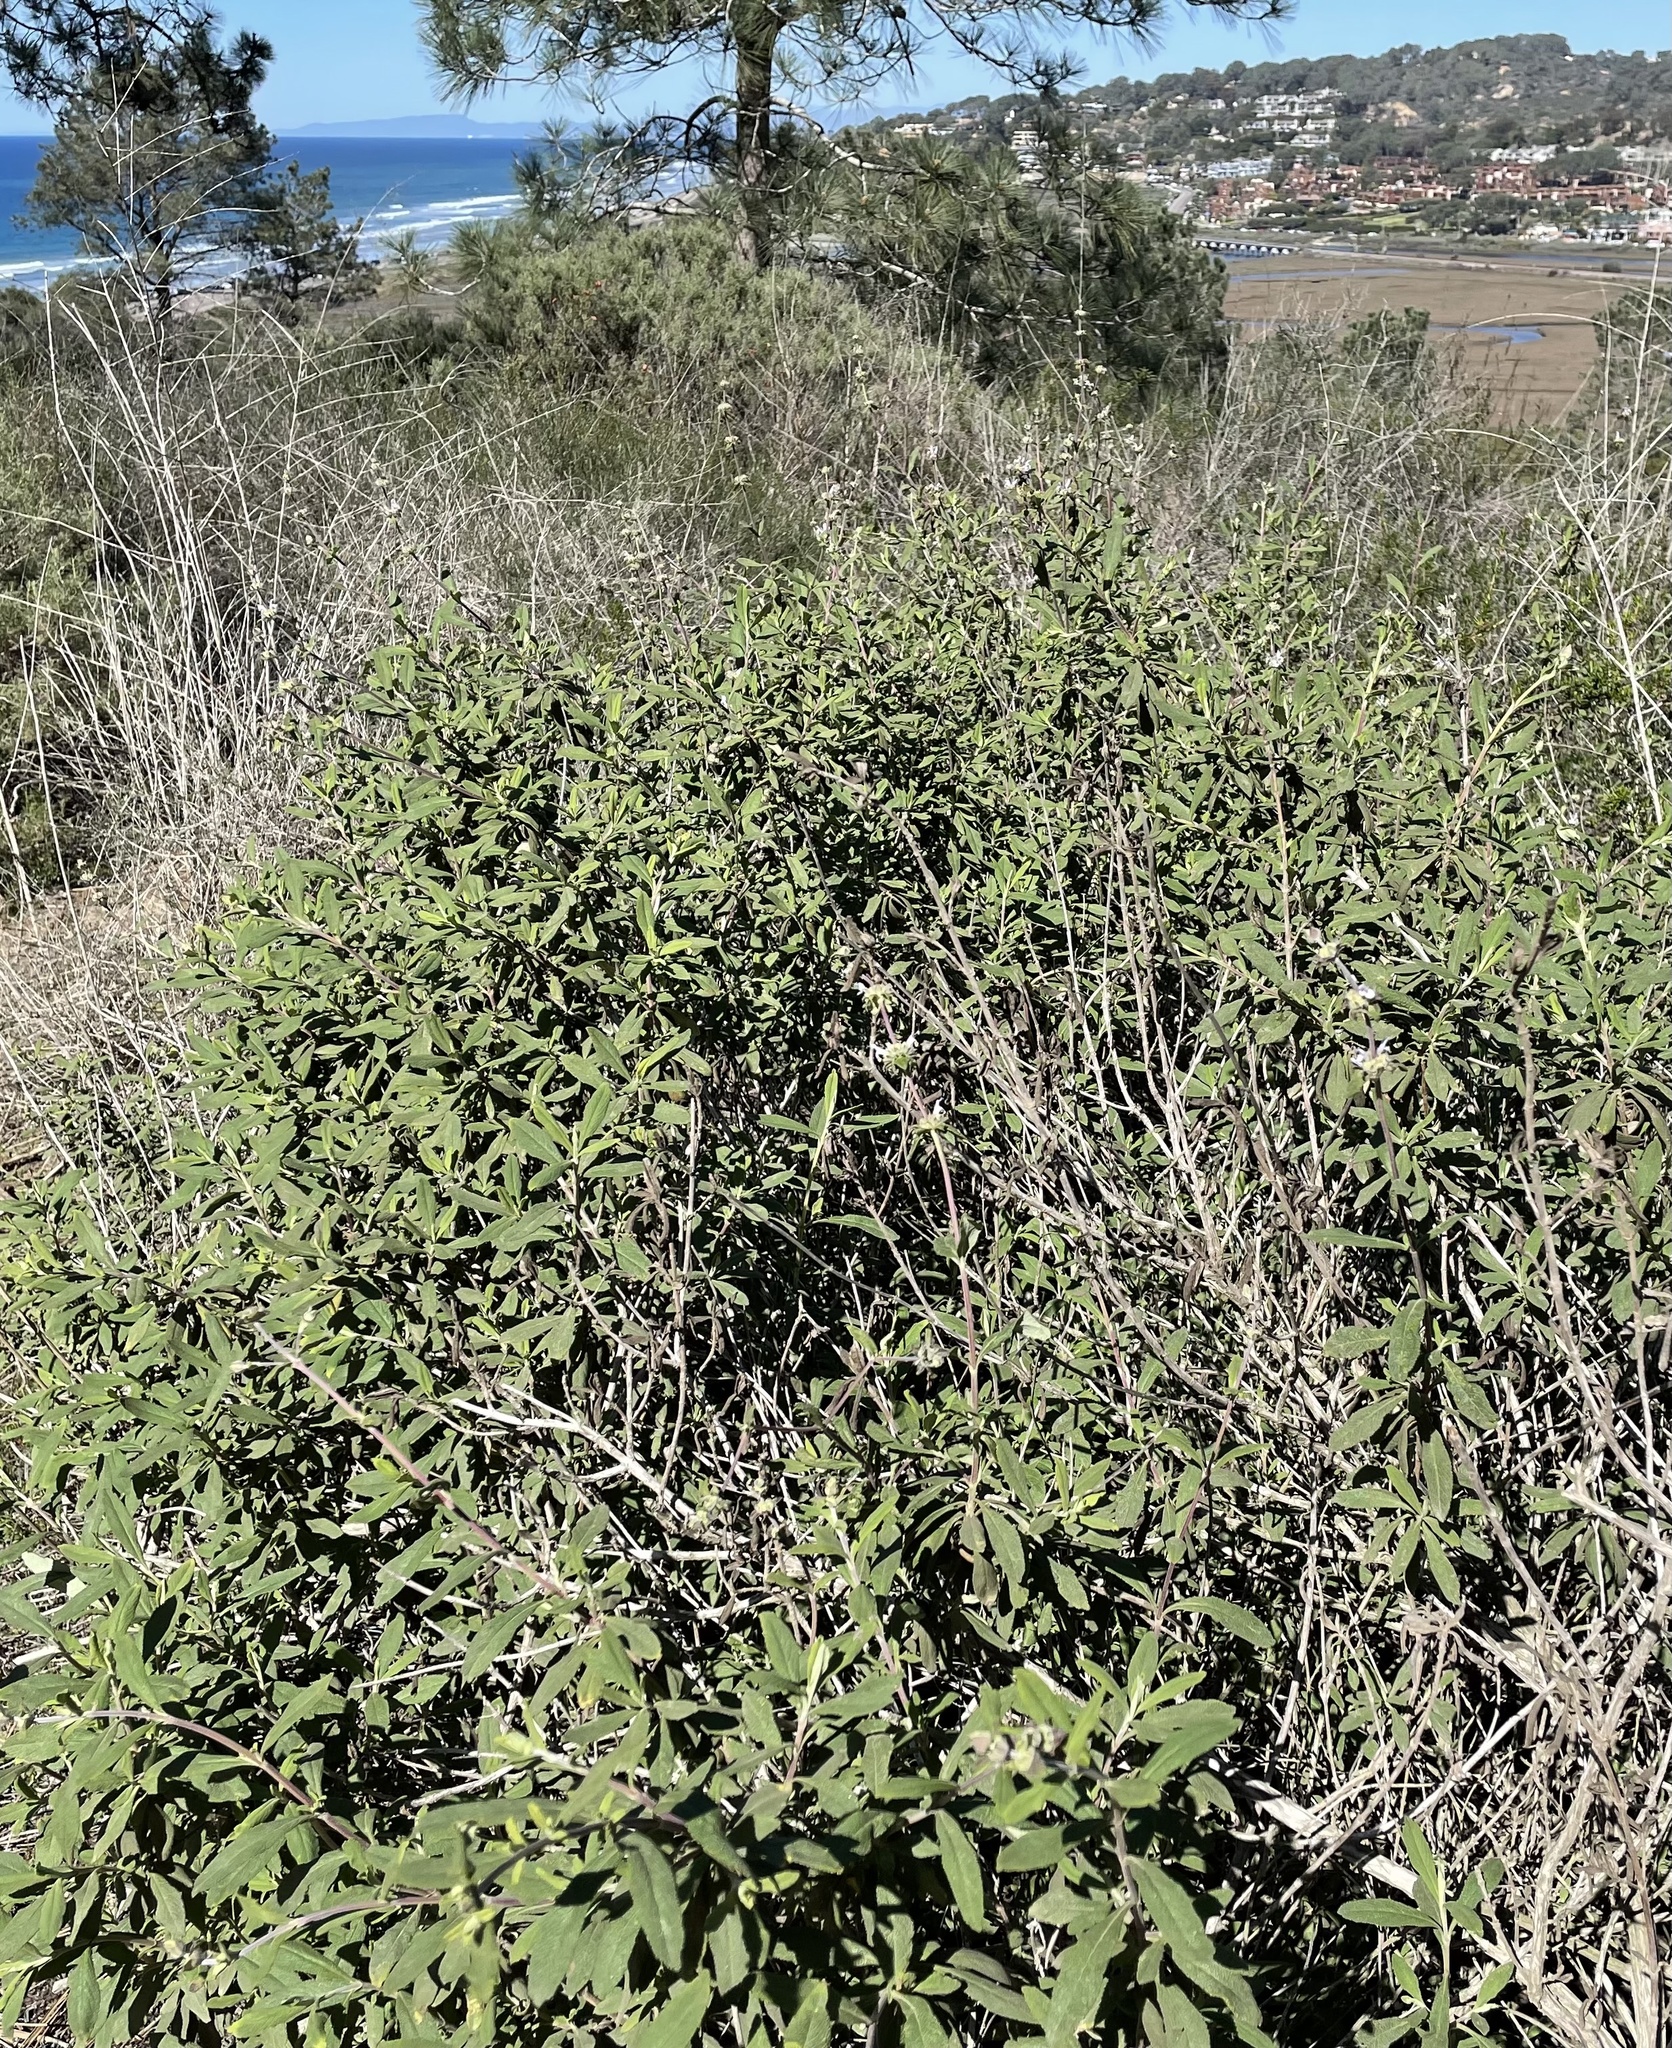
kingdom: Plantae
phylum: Tracheophyta
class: Magnoliopsida
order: Lamiales
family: Lamiaceae
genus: Salvia
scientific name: Salvia mellifera
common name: Black sage
